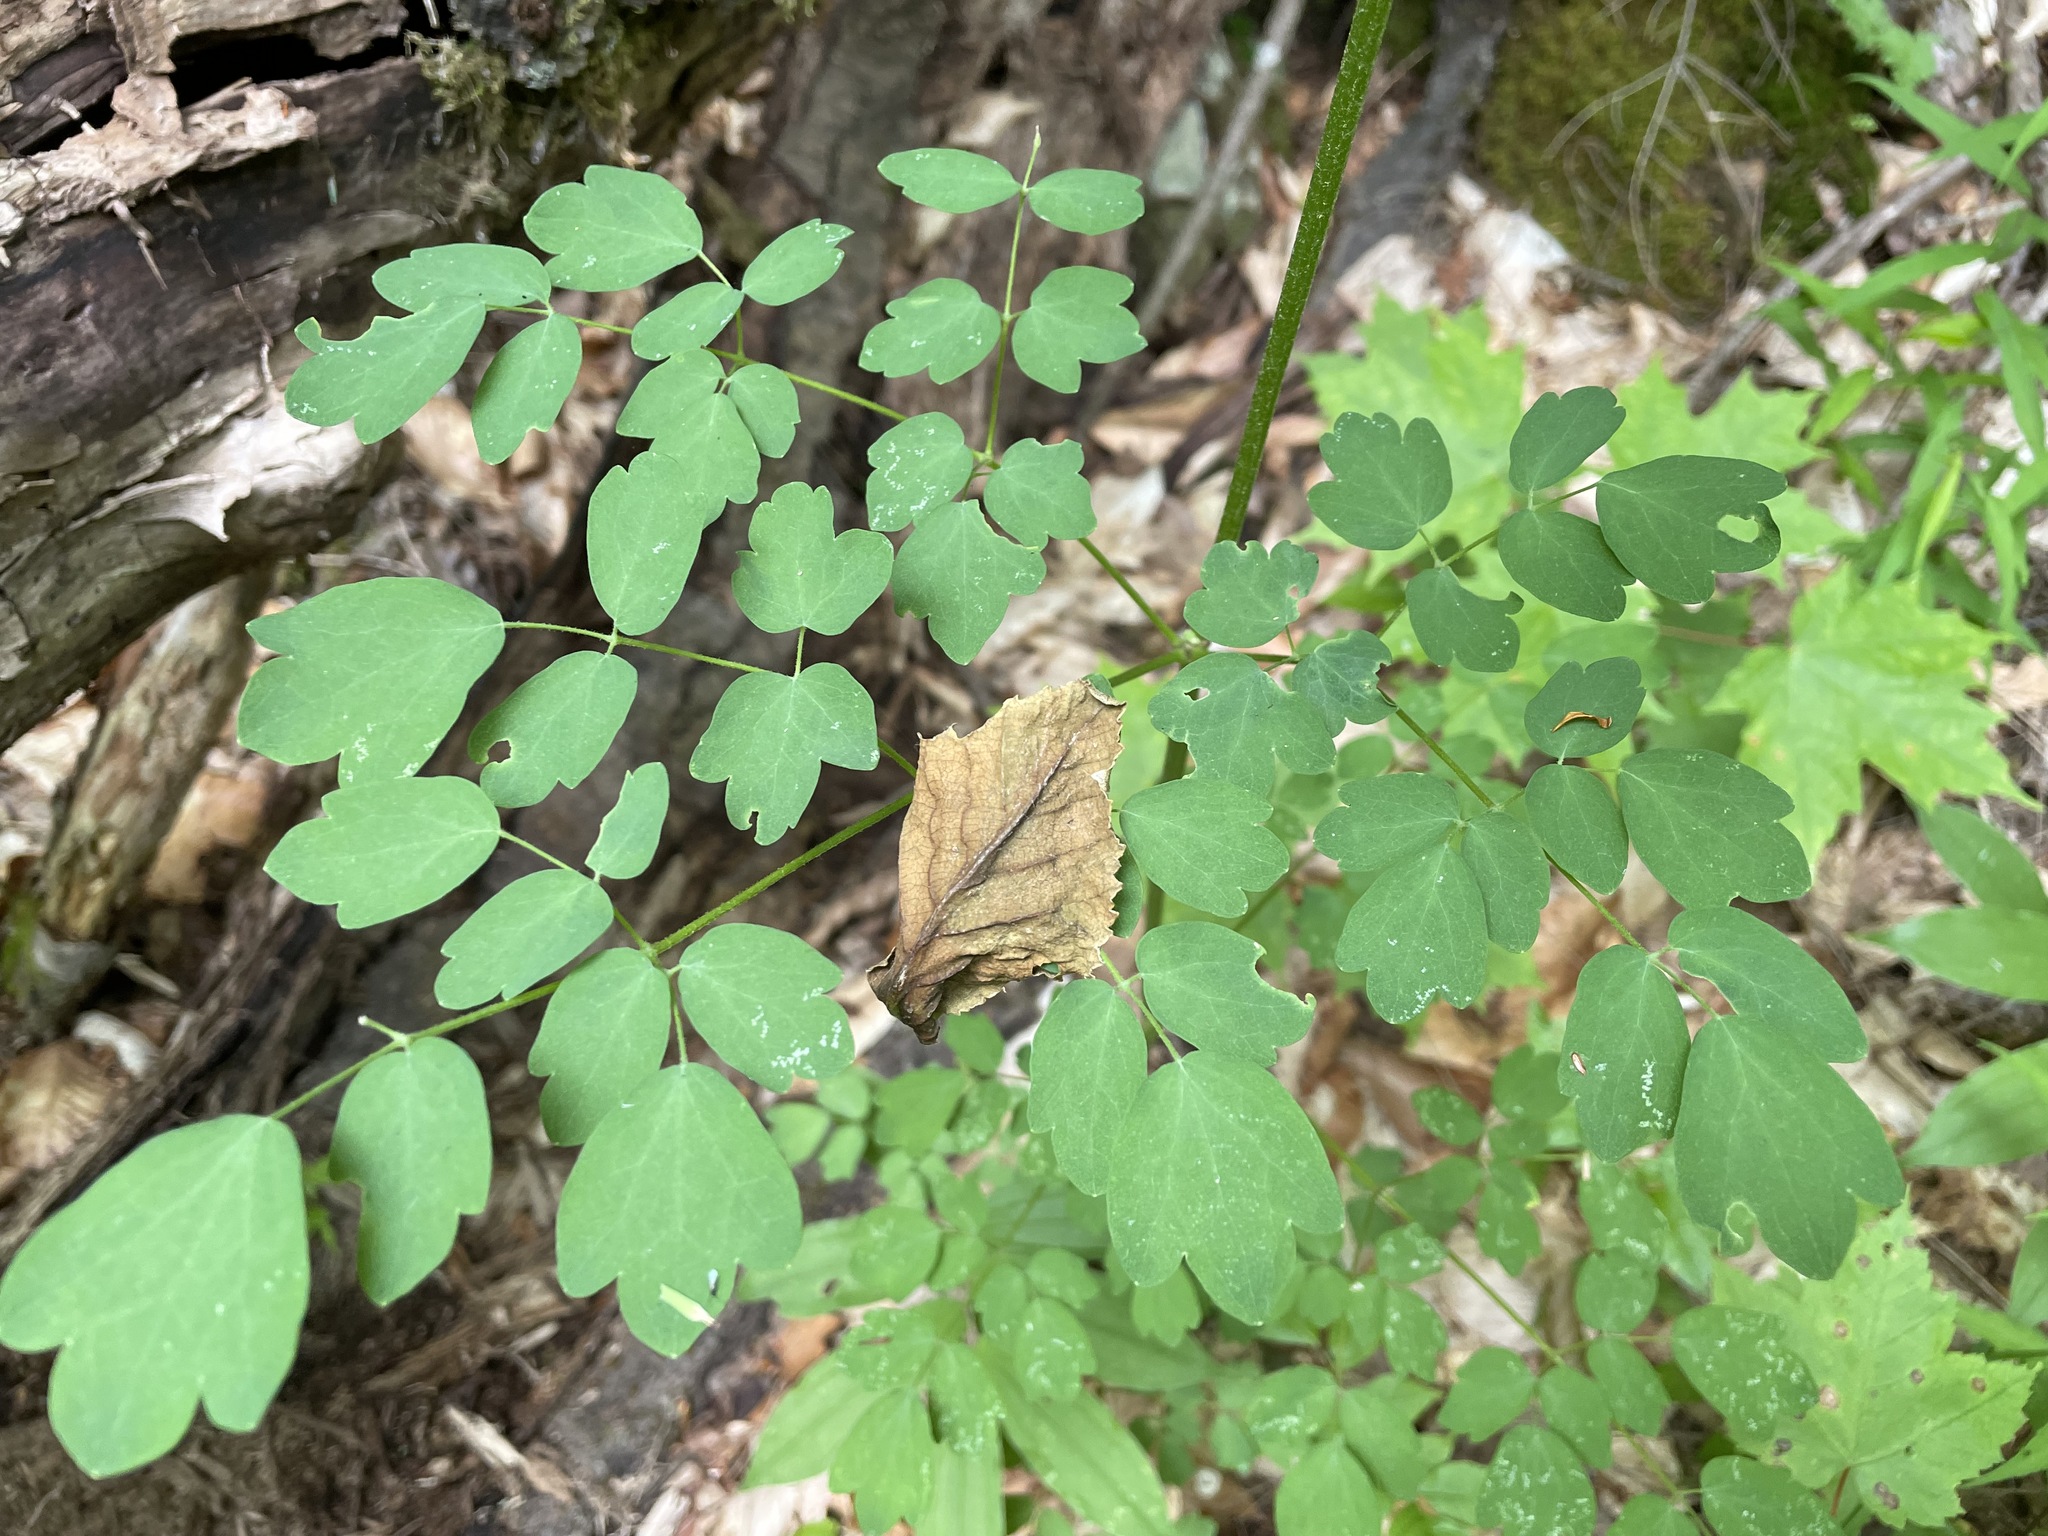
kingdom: Plantae
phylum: Tracheophyta
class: Magnoliopsida
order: Ranunculales
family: Ranunculaceae
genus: Thalictrum
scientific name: Thalictrum pubescens
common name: King-of-the-meadow
